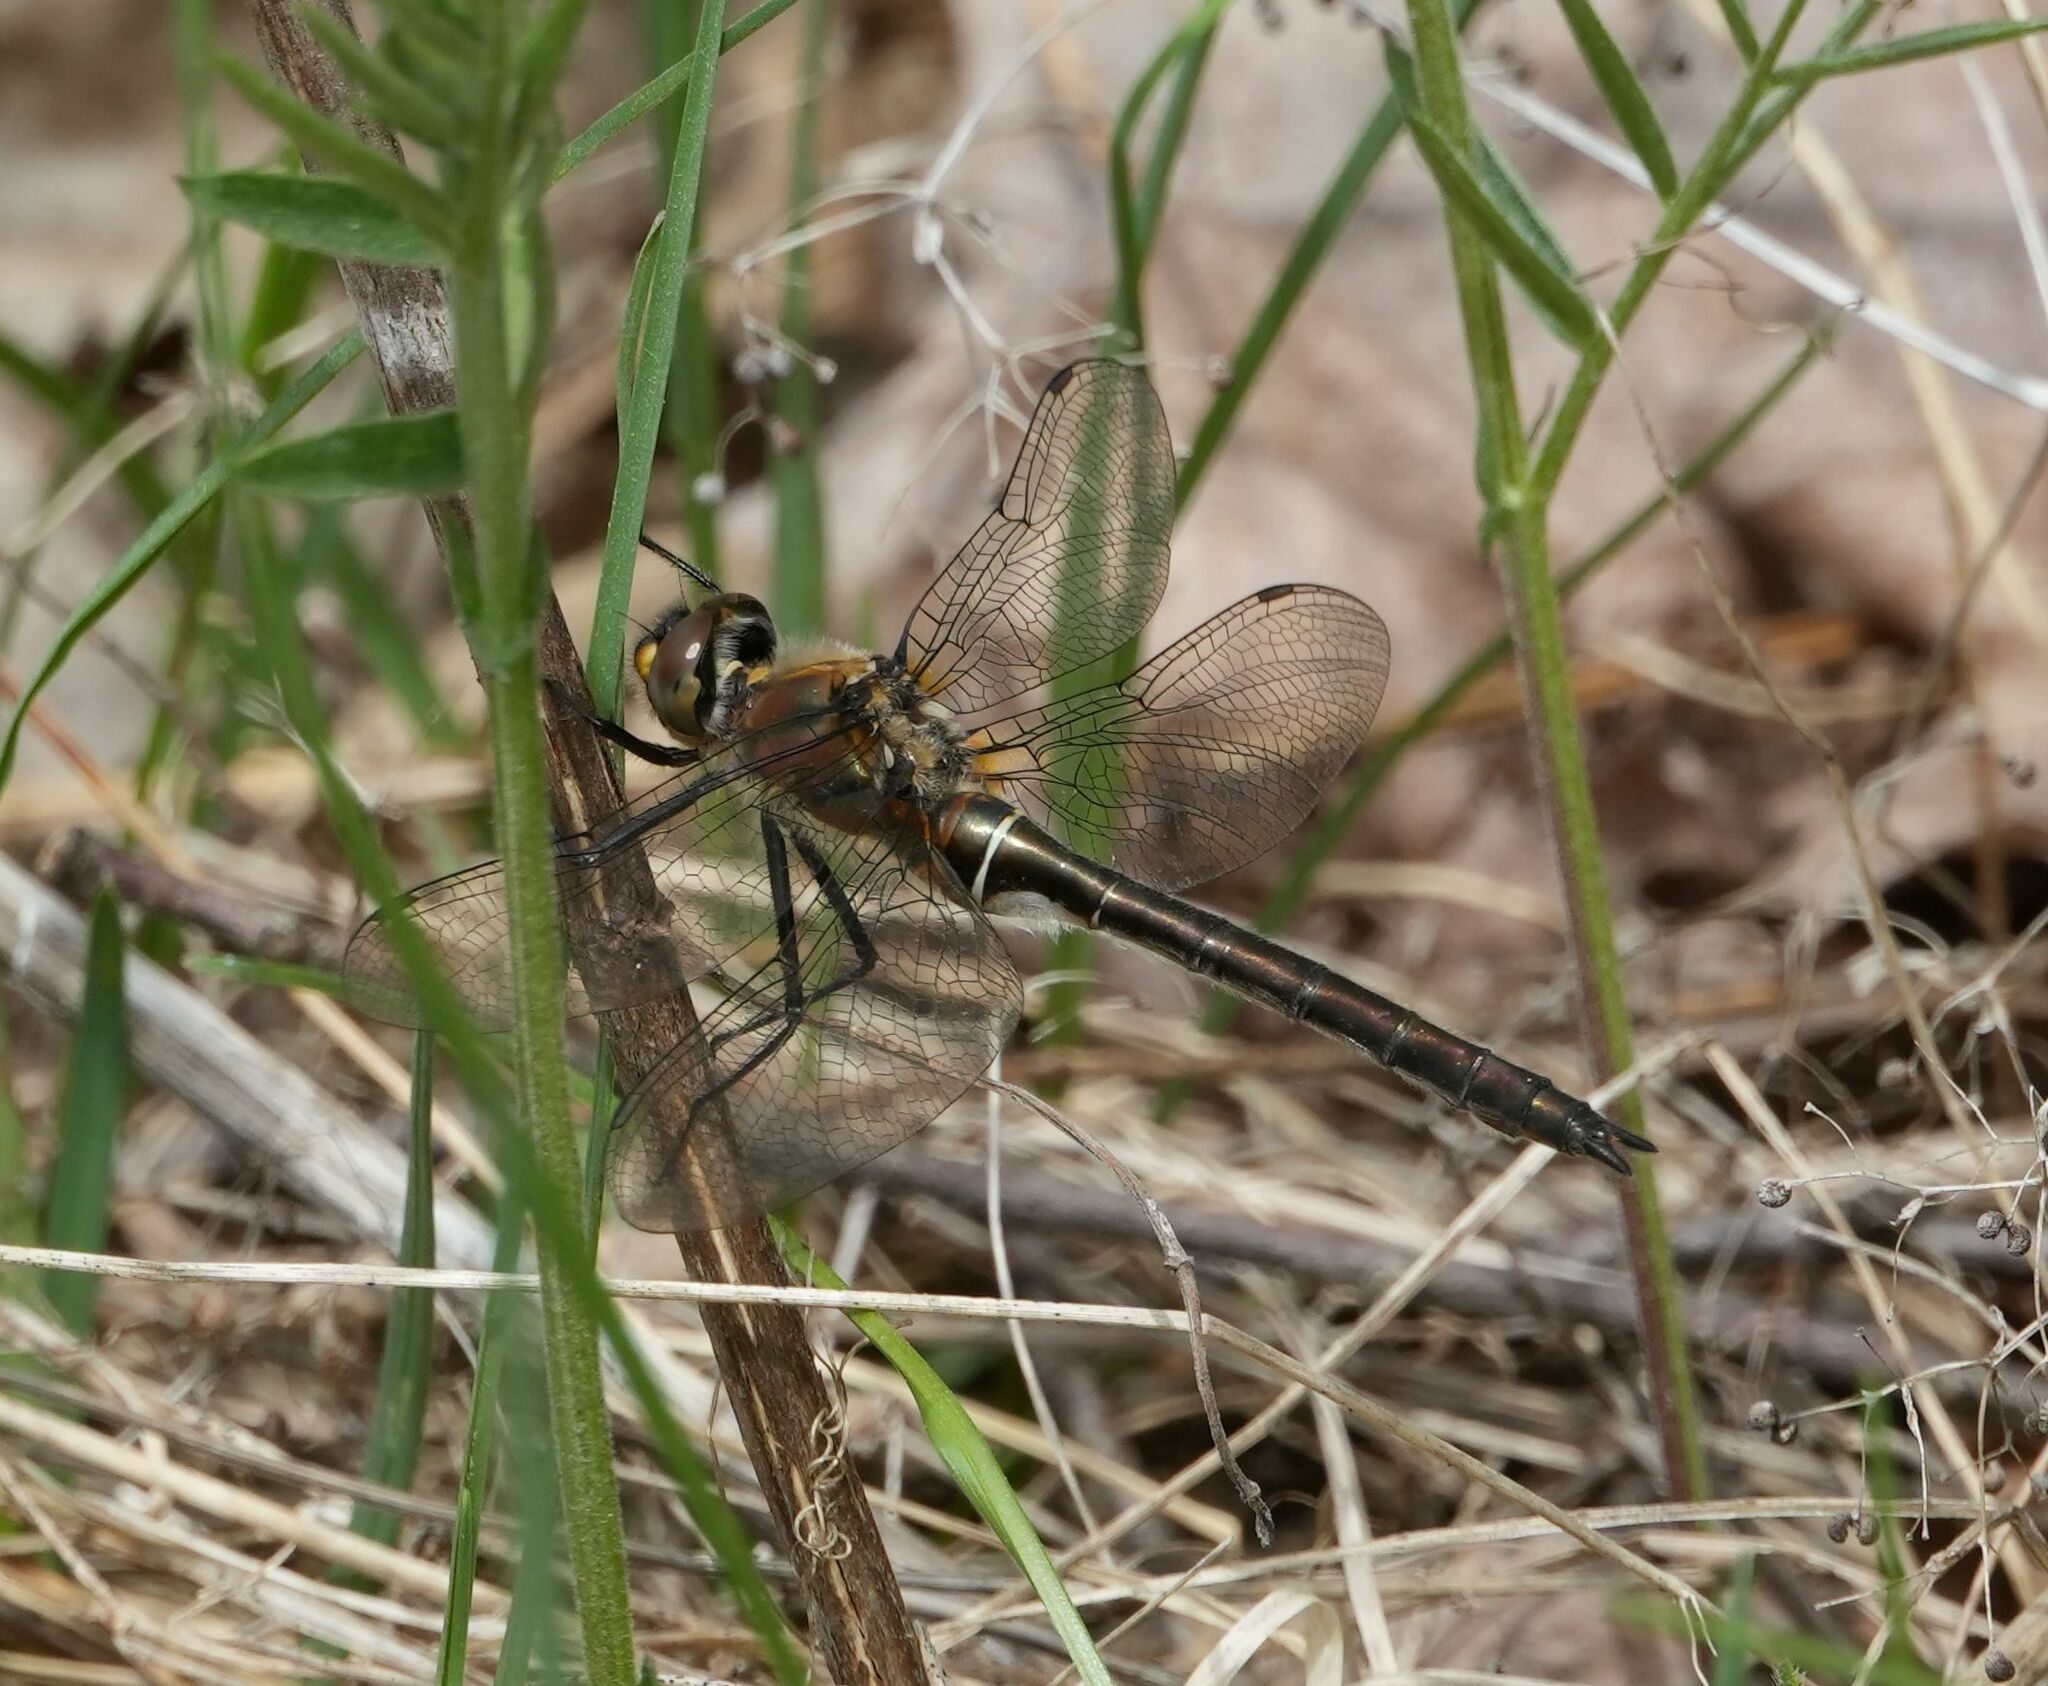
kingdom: Animalia
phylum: Arthropoda
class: Insecta
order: Odonata
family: Corduliidae
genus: Cordulia
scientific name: Cordulia shurtleffii
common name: American emerald
